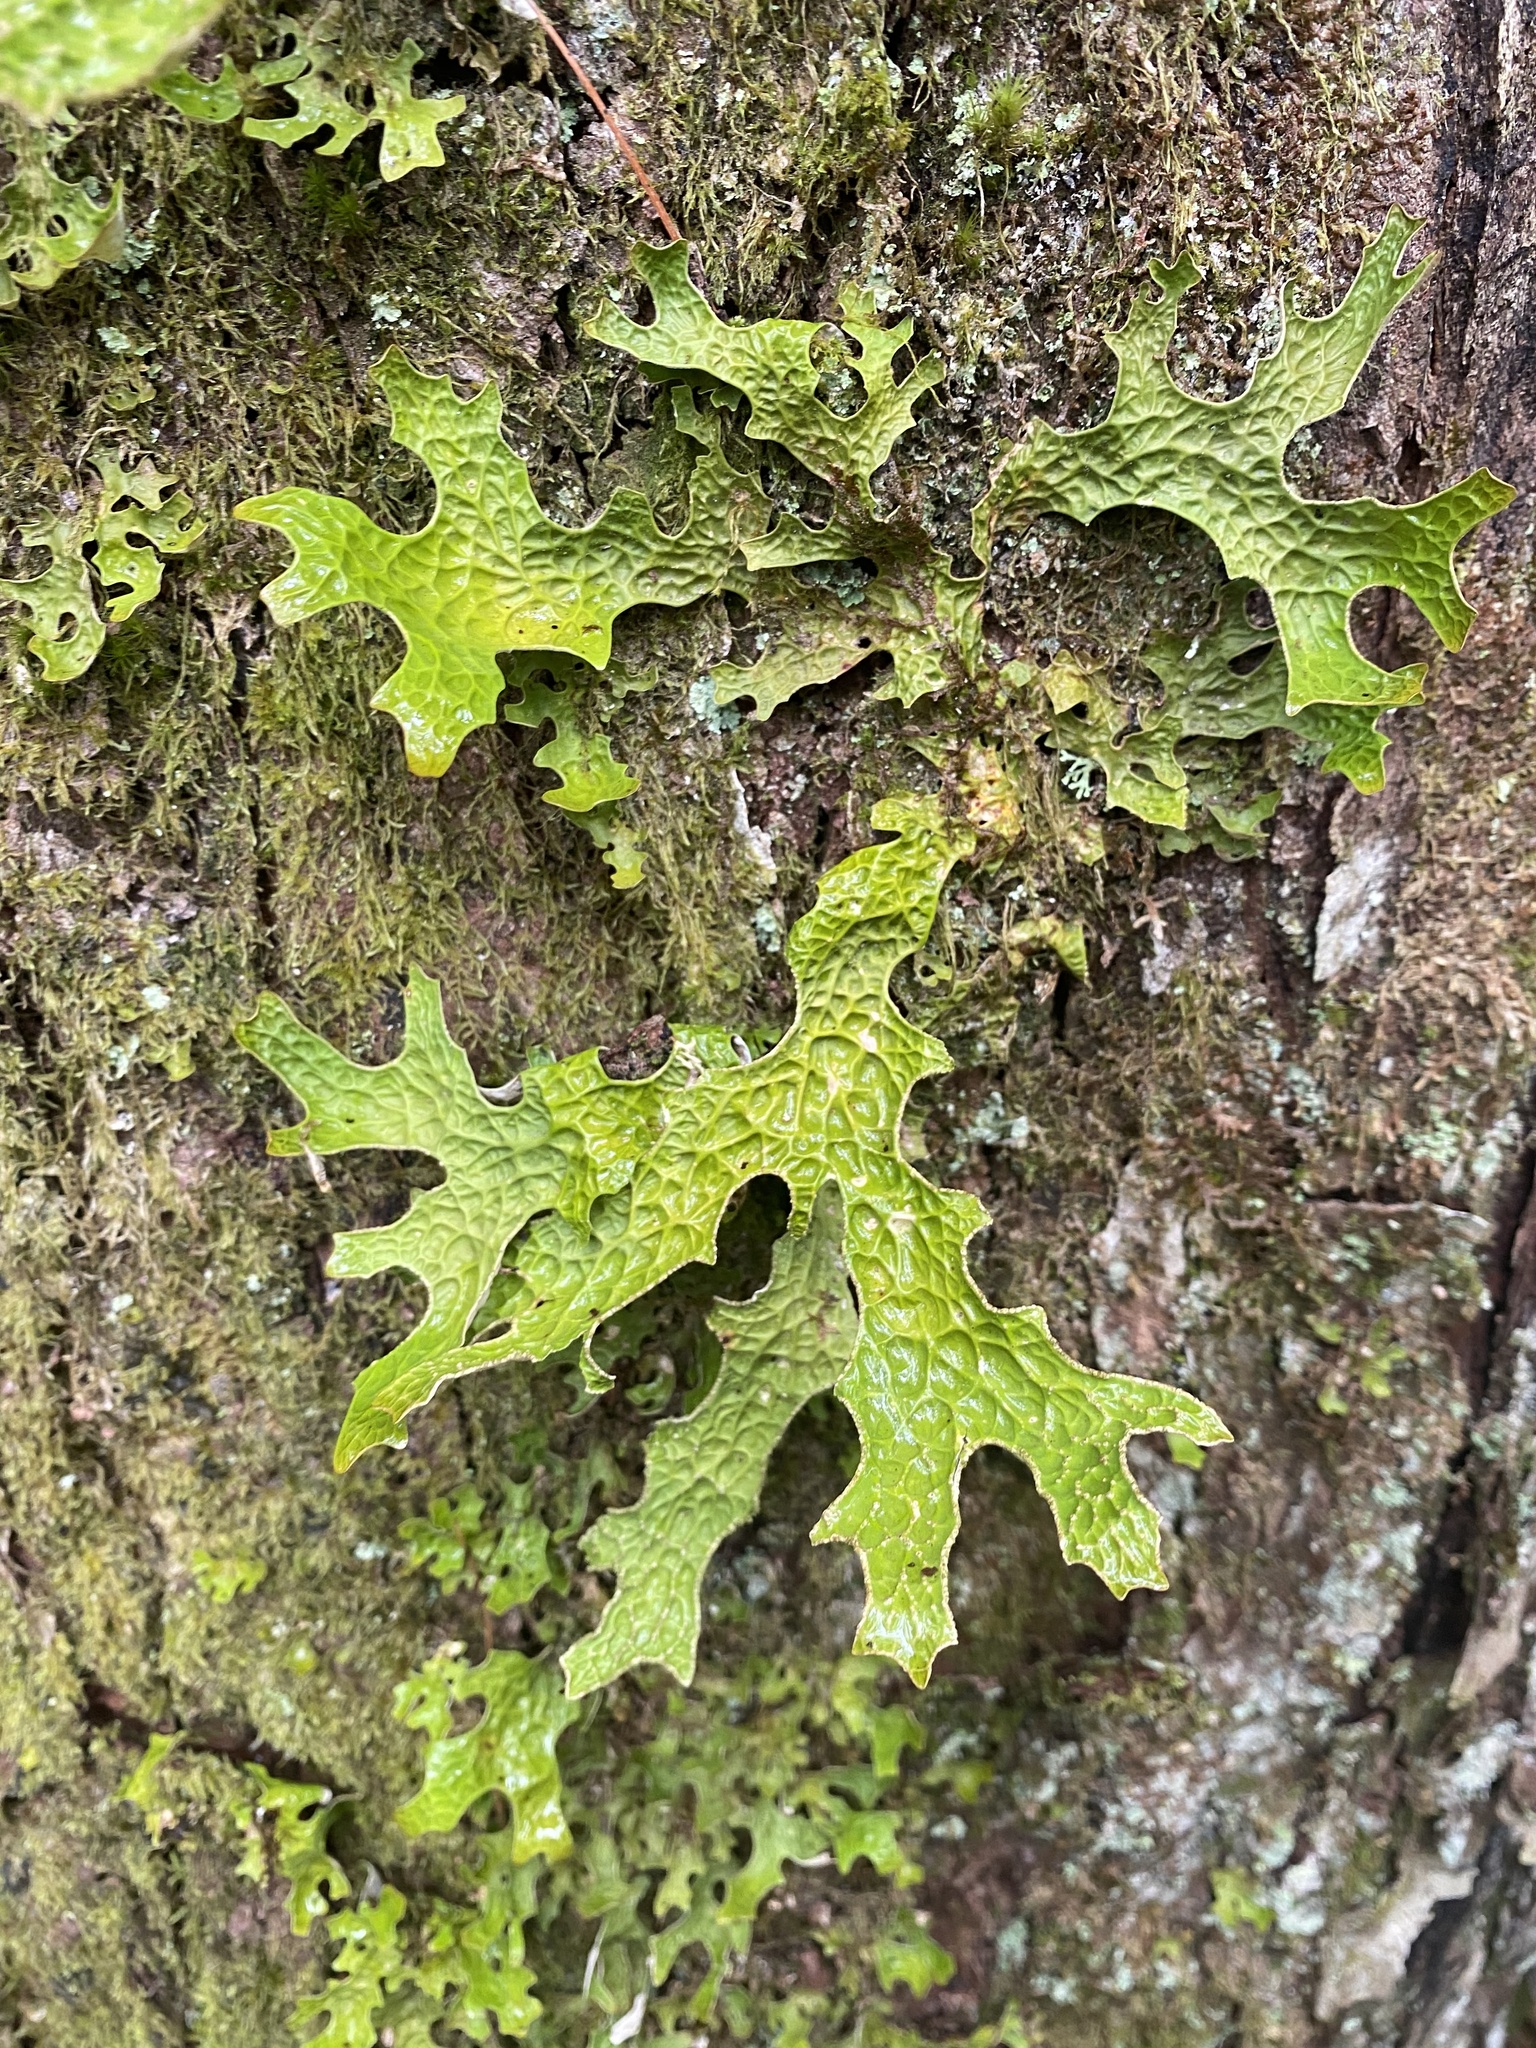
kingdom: Fungi
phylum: Ascomycota
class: Lecanoromycetes
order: Peltigerales
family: Lobariaceae
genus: Lobaria
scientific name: Lobaria pulmonaria
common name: Lungwort
